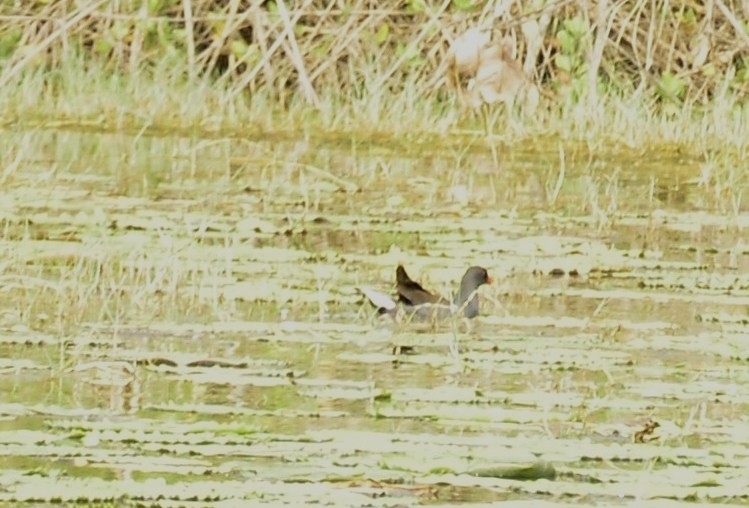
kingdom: Animalia
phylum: Chordata
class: Aves
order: Gruiformes
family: Rallidae
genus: Gallinula
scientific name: Gallinula chloropus
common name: Common moorhen
